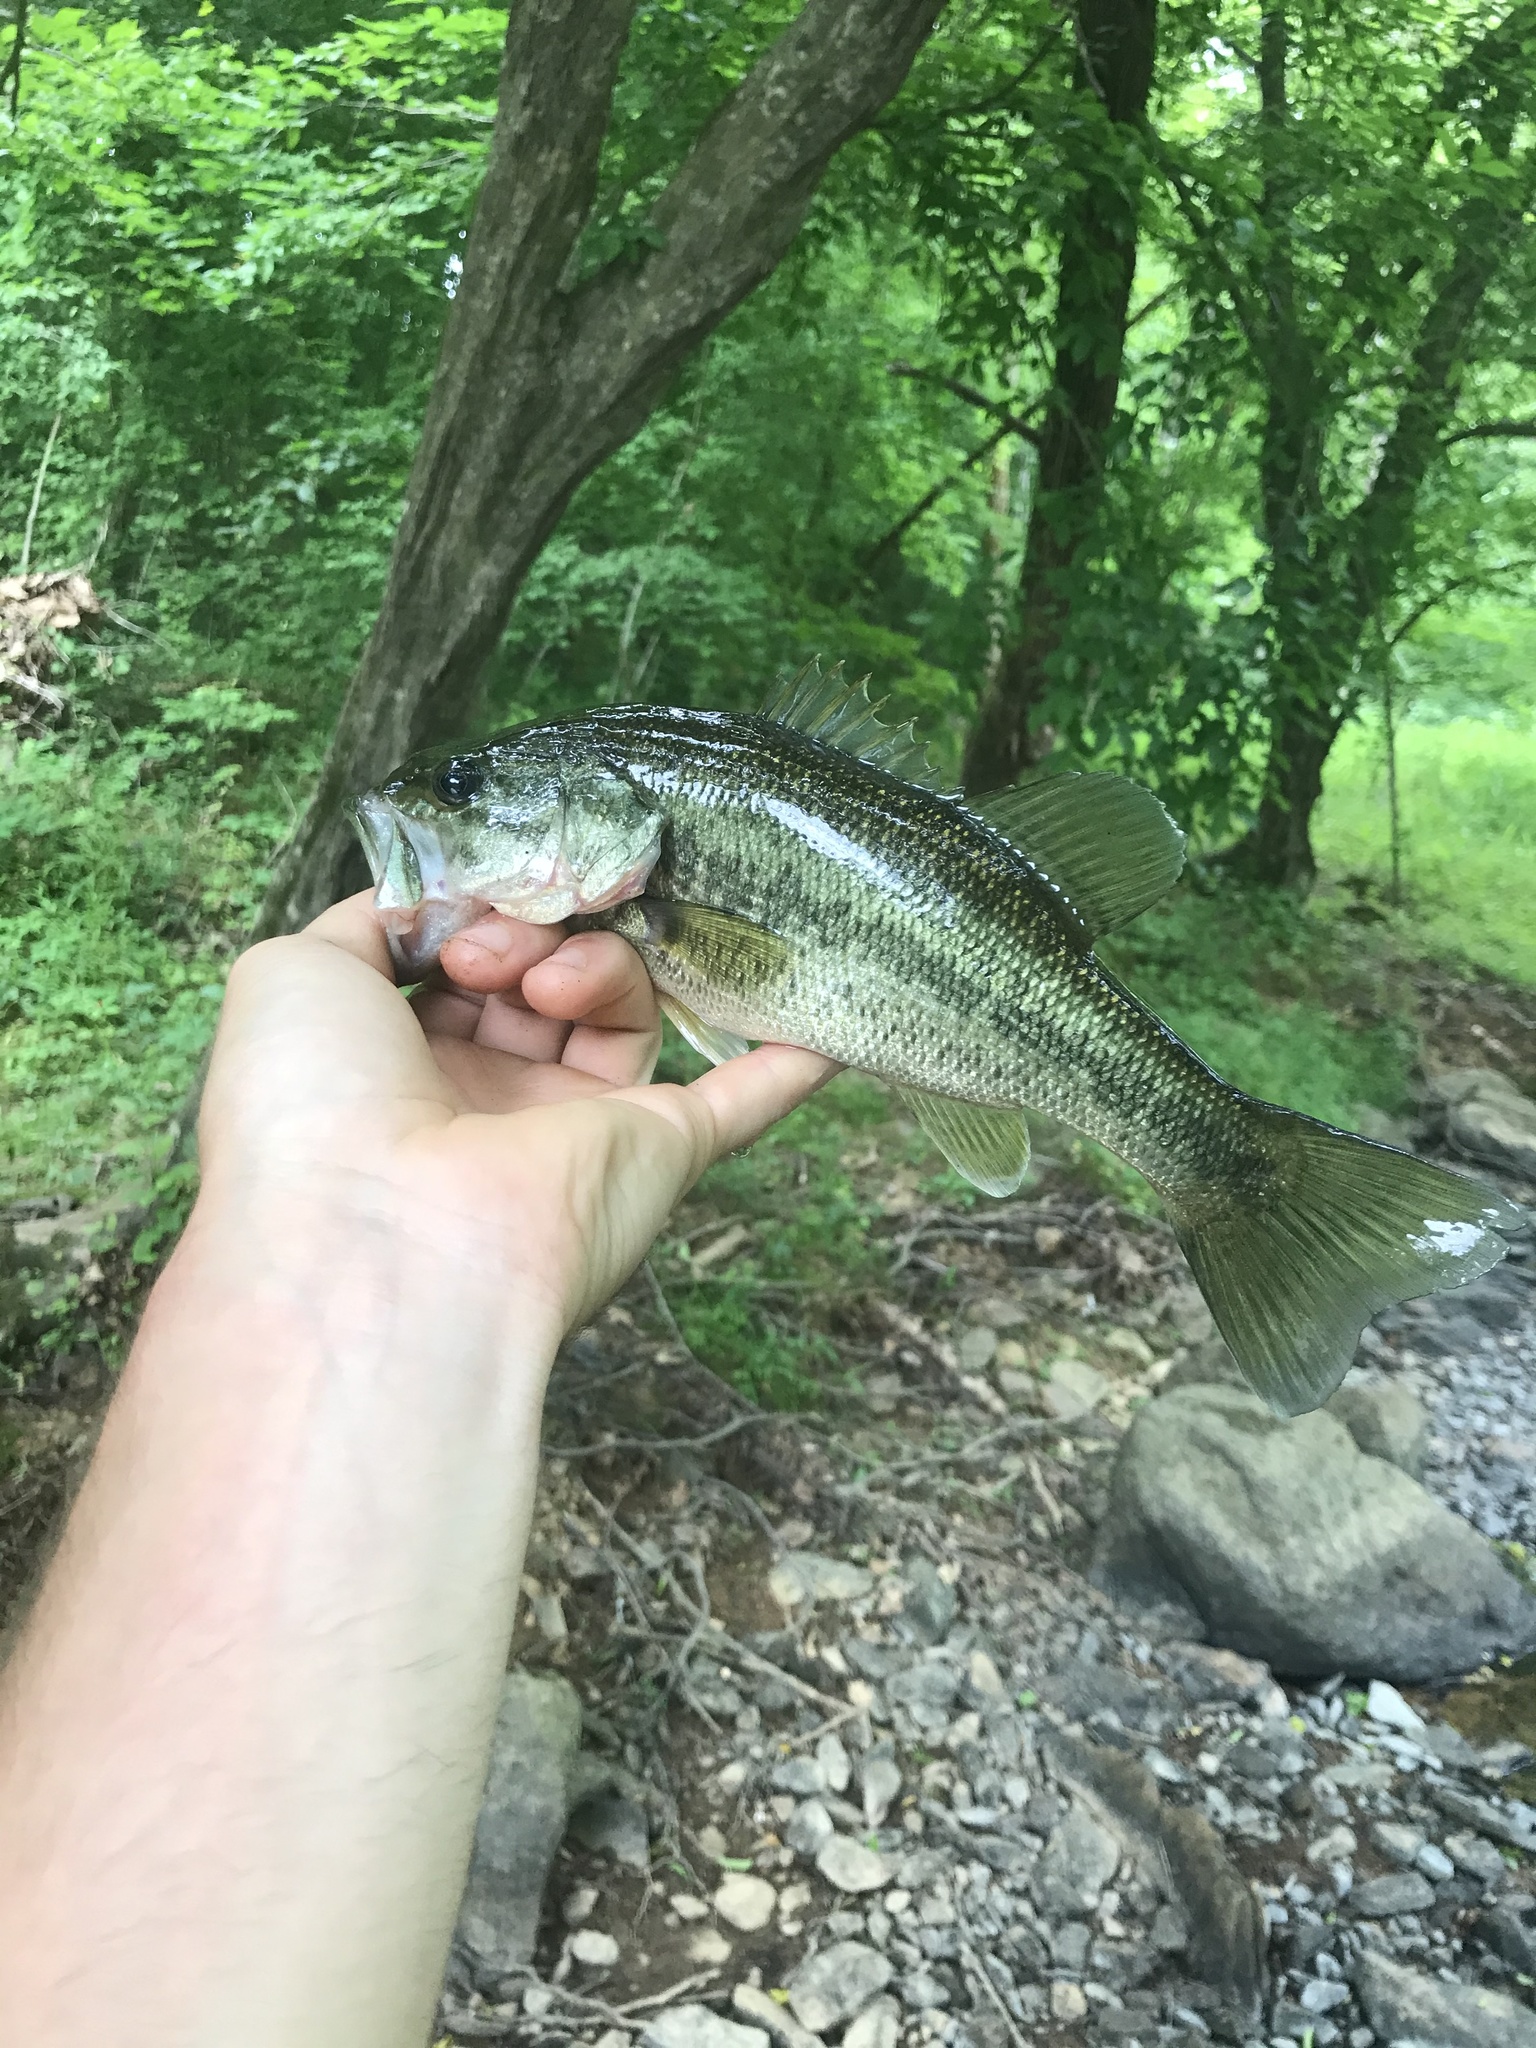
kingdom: Animalia
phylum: Chordata
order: Perciformes
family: Centrarchidae
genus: Micropterus
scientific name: Micropterus salmoides
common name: Largemouth bass
